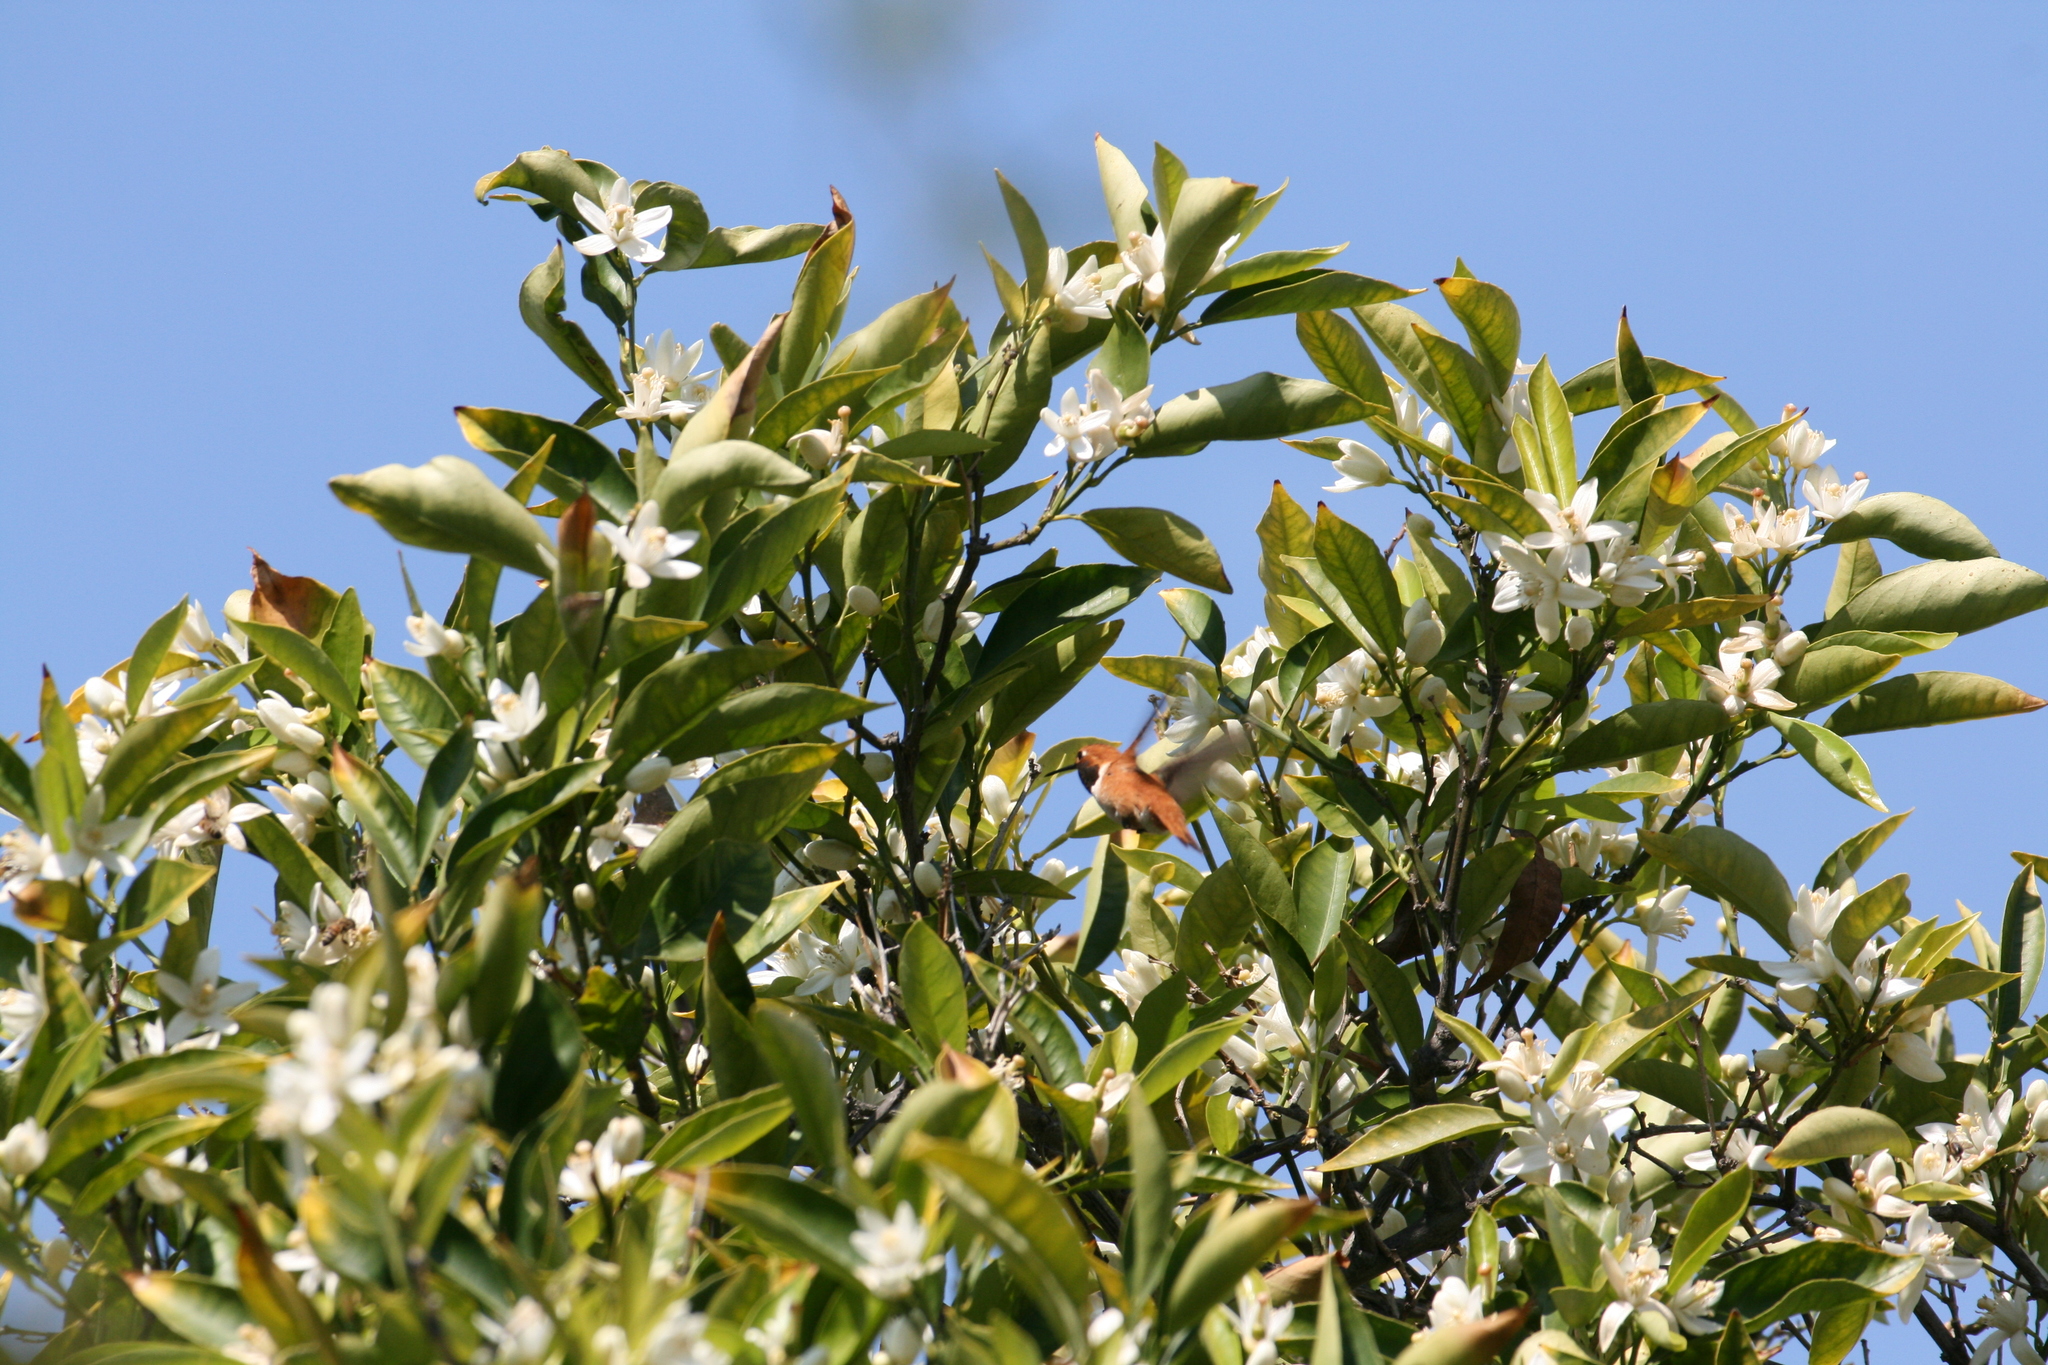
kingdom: Animalia
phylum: Chordata
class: Aves
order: Apodiformes
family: Trochilidae
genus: Selasphorus
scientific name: Selasphorus rufus
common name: Rufous hummingbird
